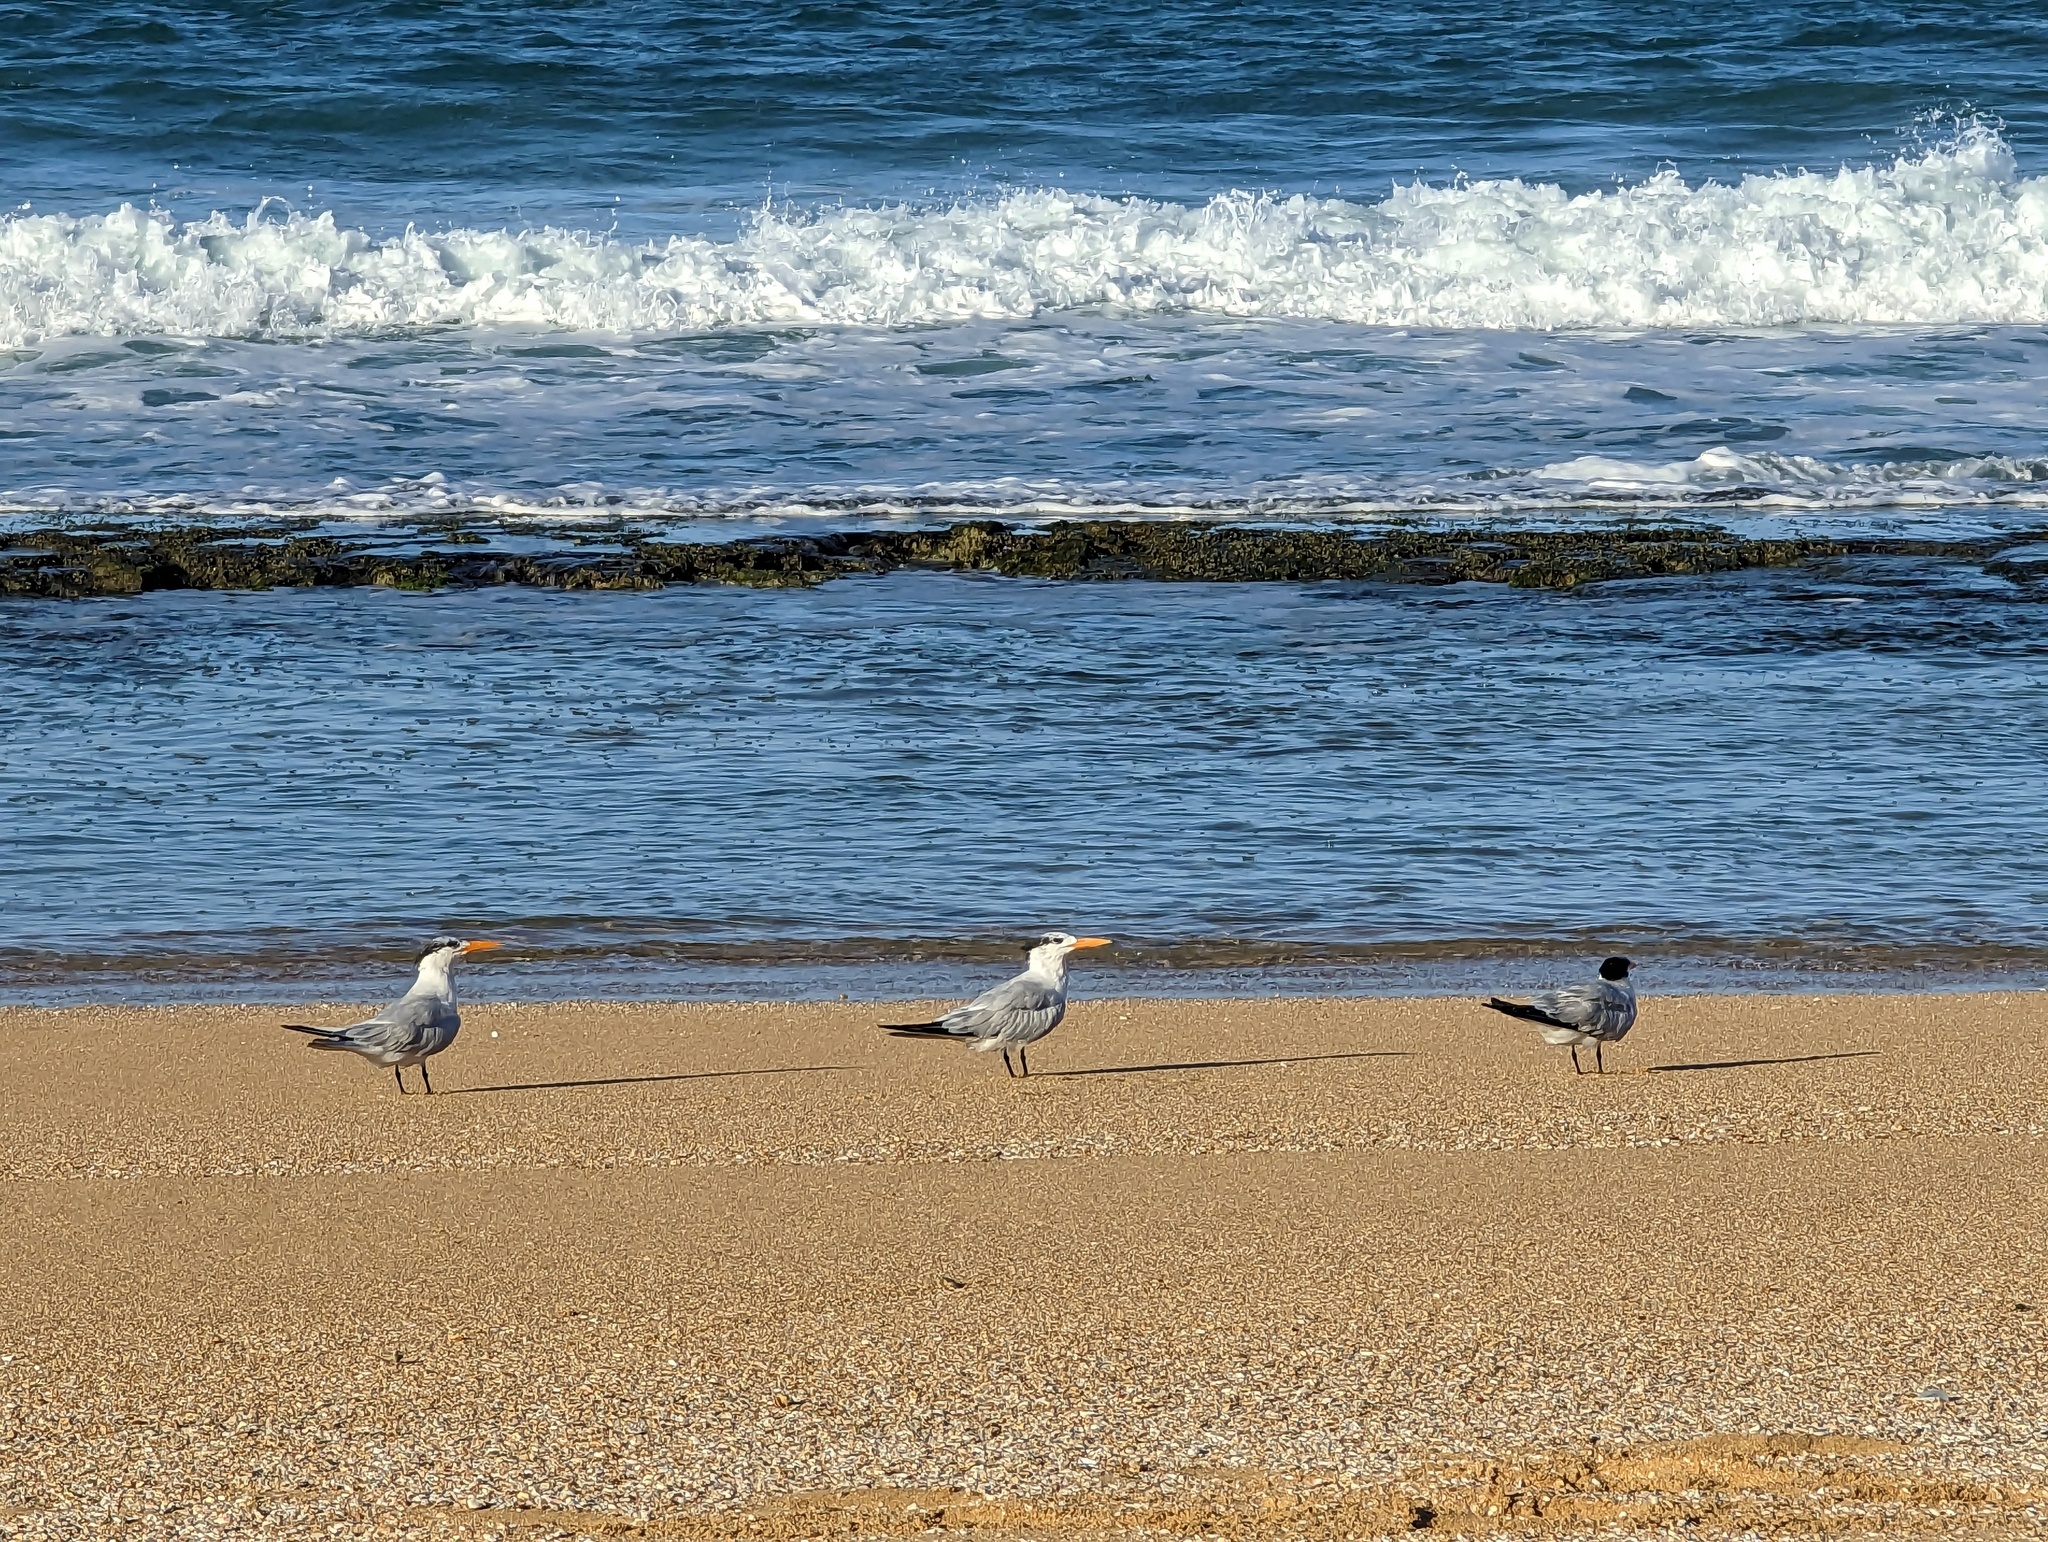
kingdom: Animalia
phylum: Chordata
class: Aves
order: Charadriiformes
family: Laridae
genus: Thalasseus
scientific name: Thalasseus maximus
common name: Royal tern
